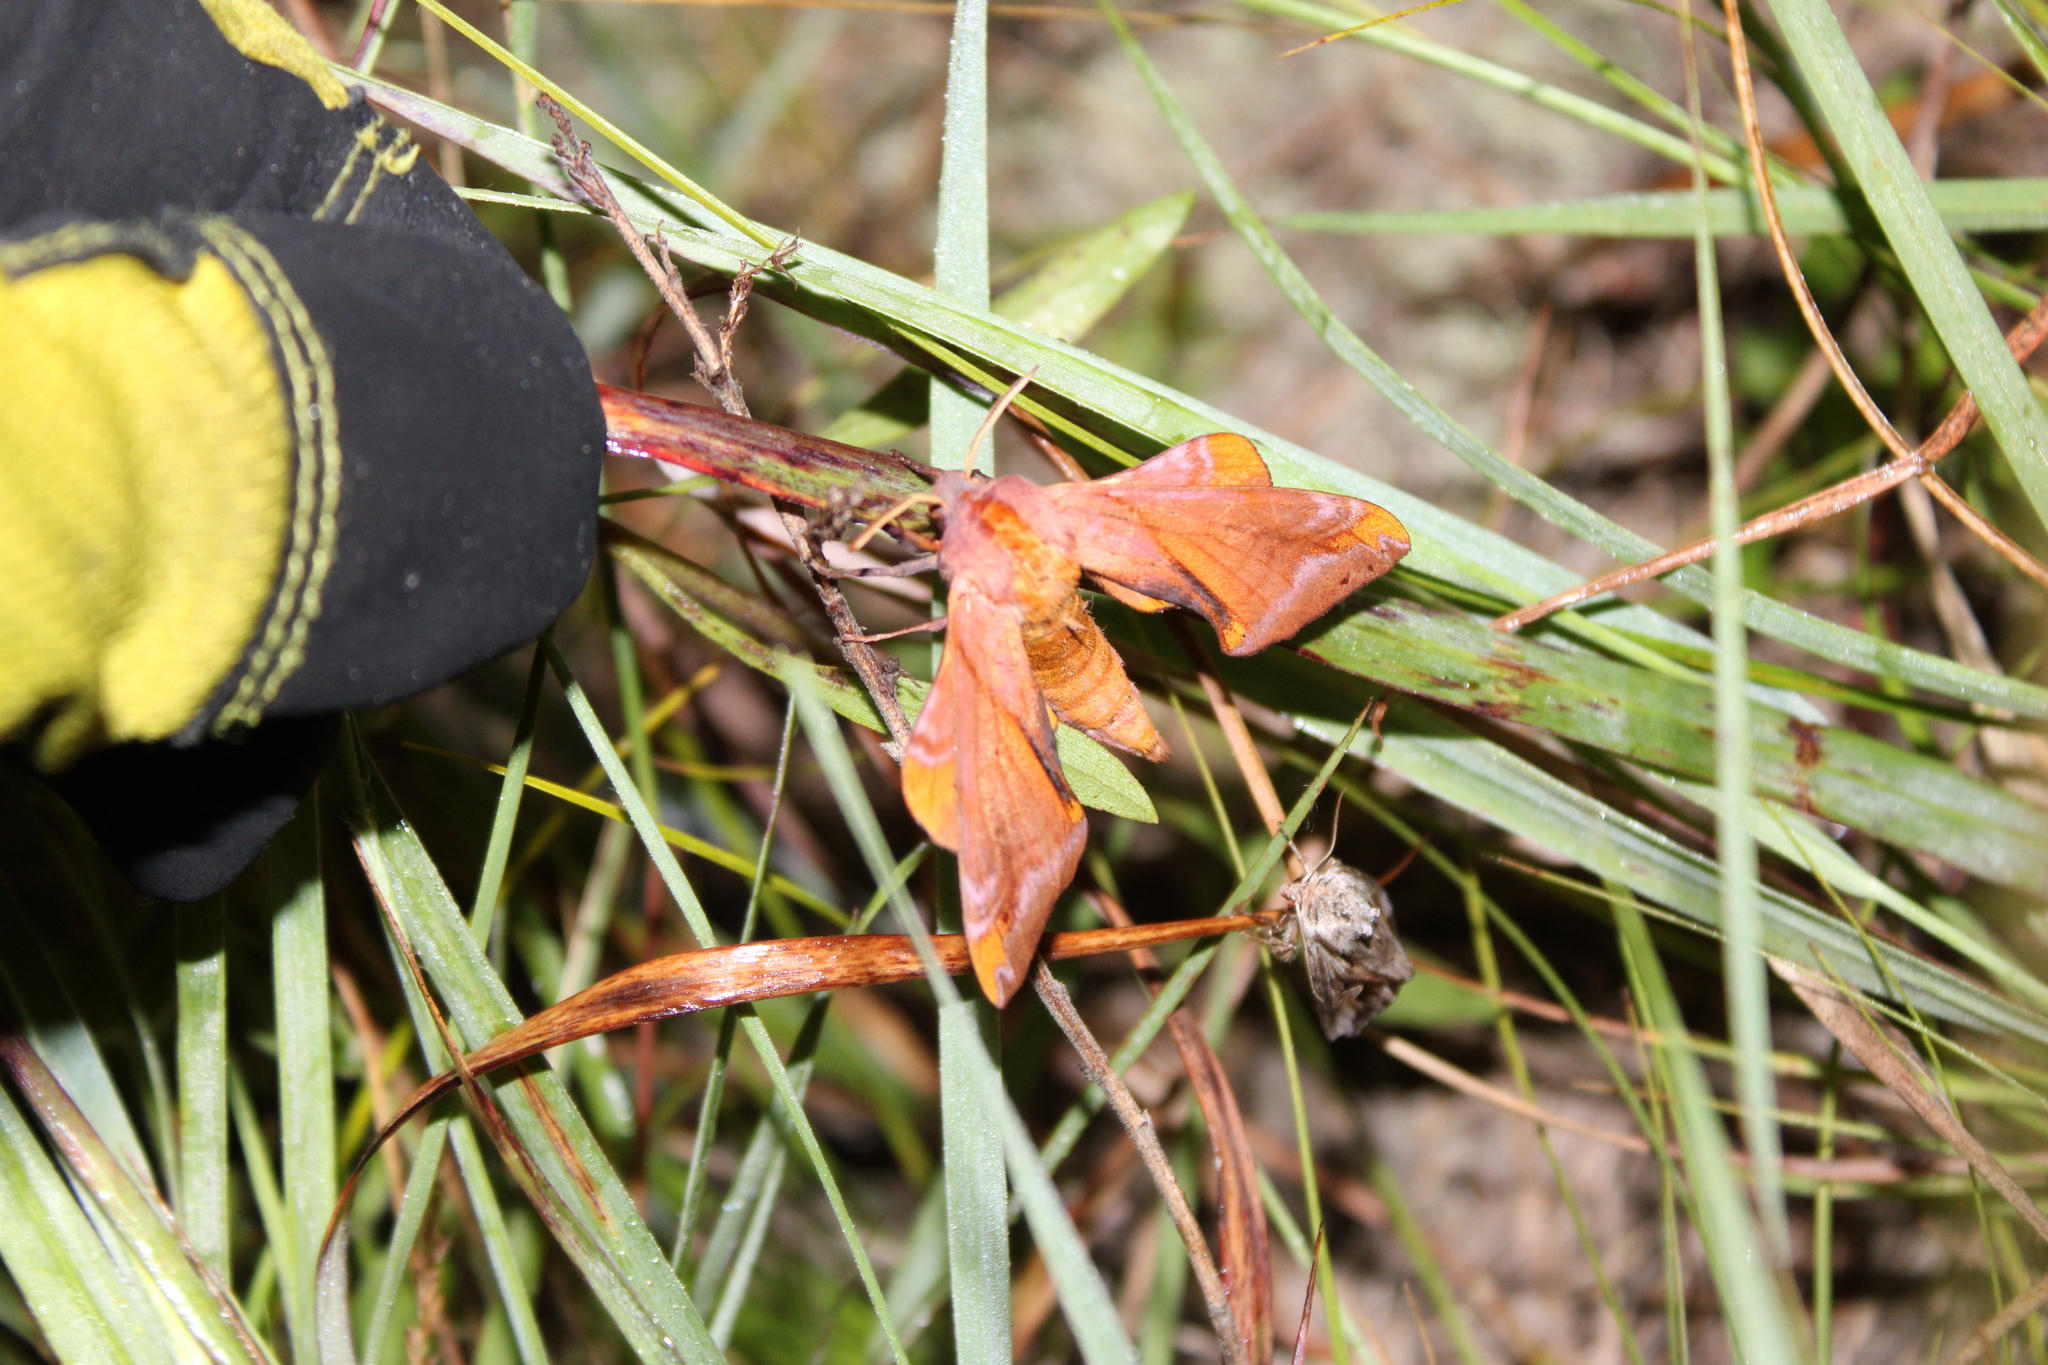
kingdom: Animalia
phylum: Arthropoda
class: Insecta
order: Lepidoptera
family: Sphingidae
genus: Paonias
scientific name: Paonias astylus
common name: Huckleberry sphinx
